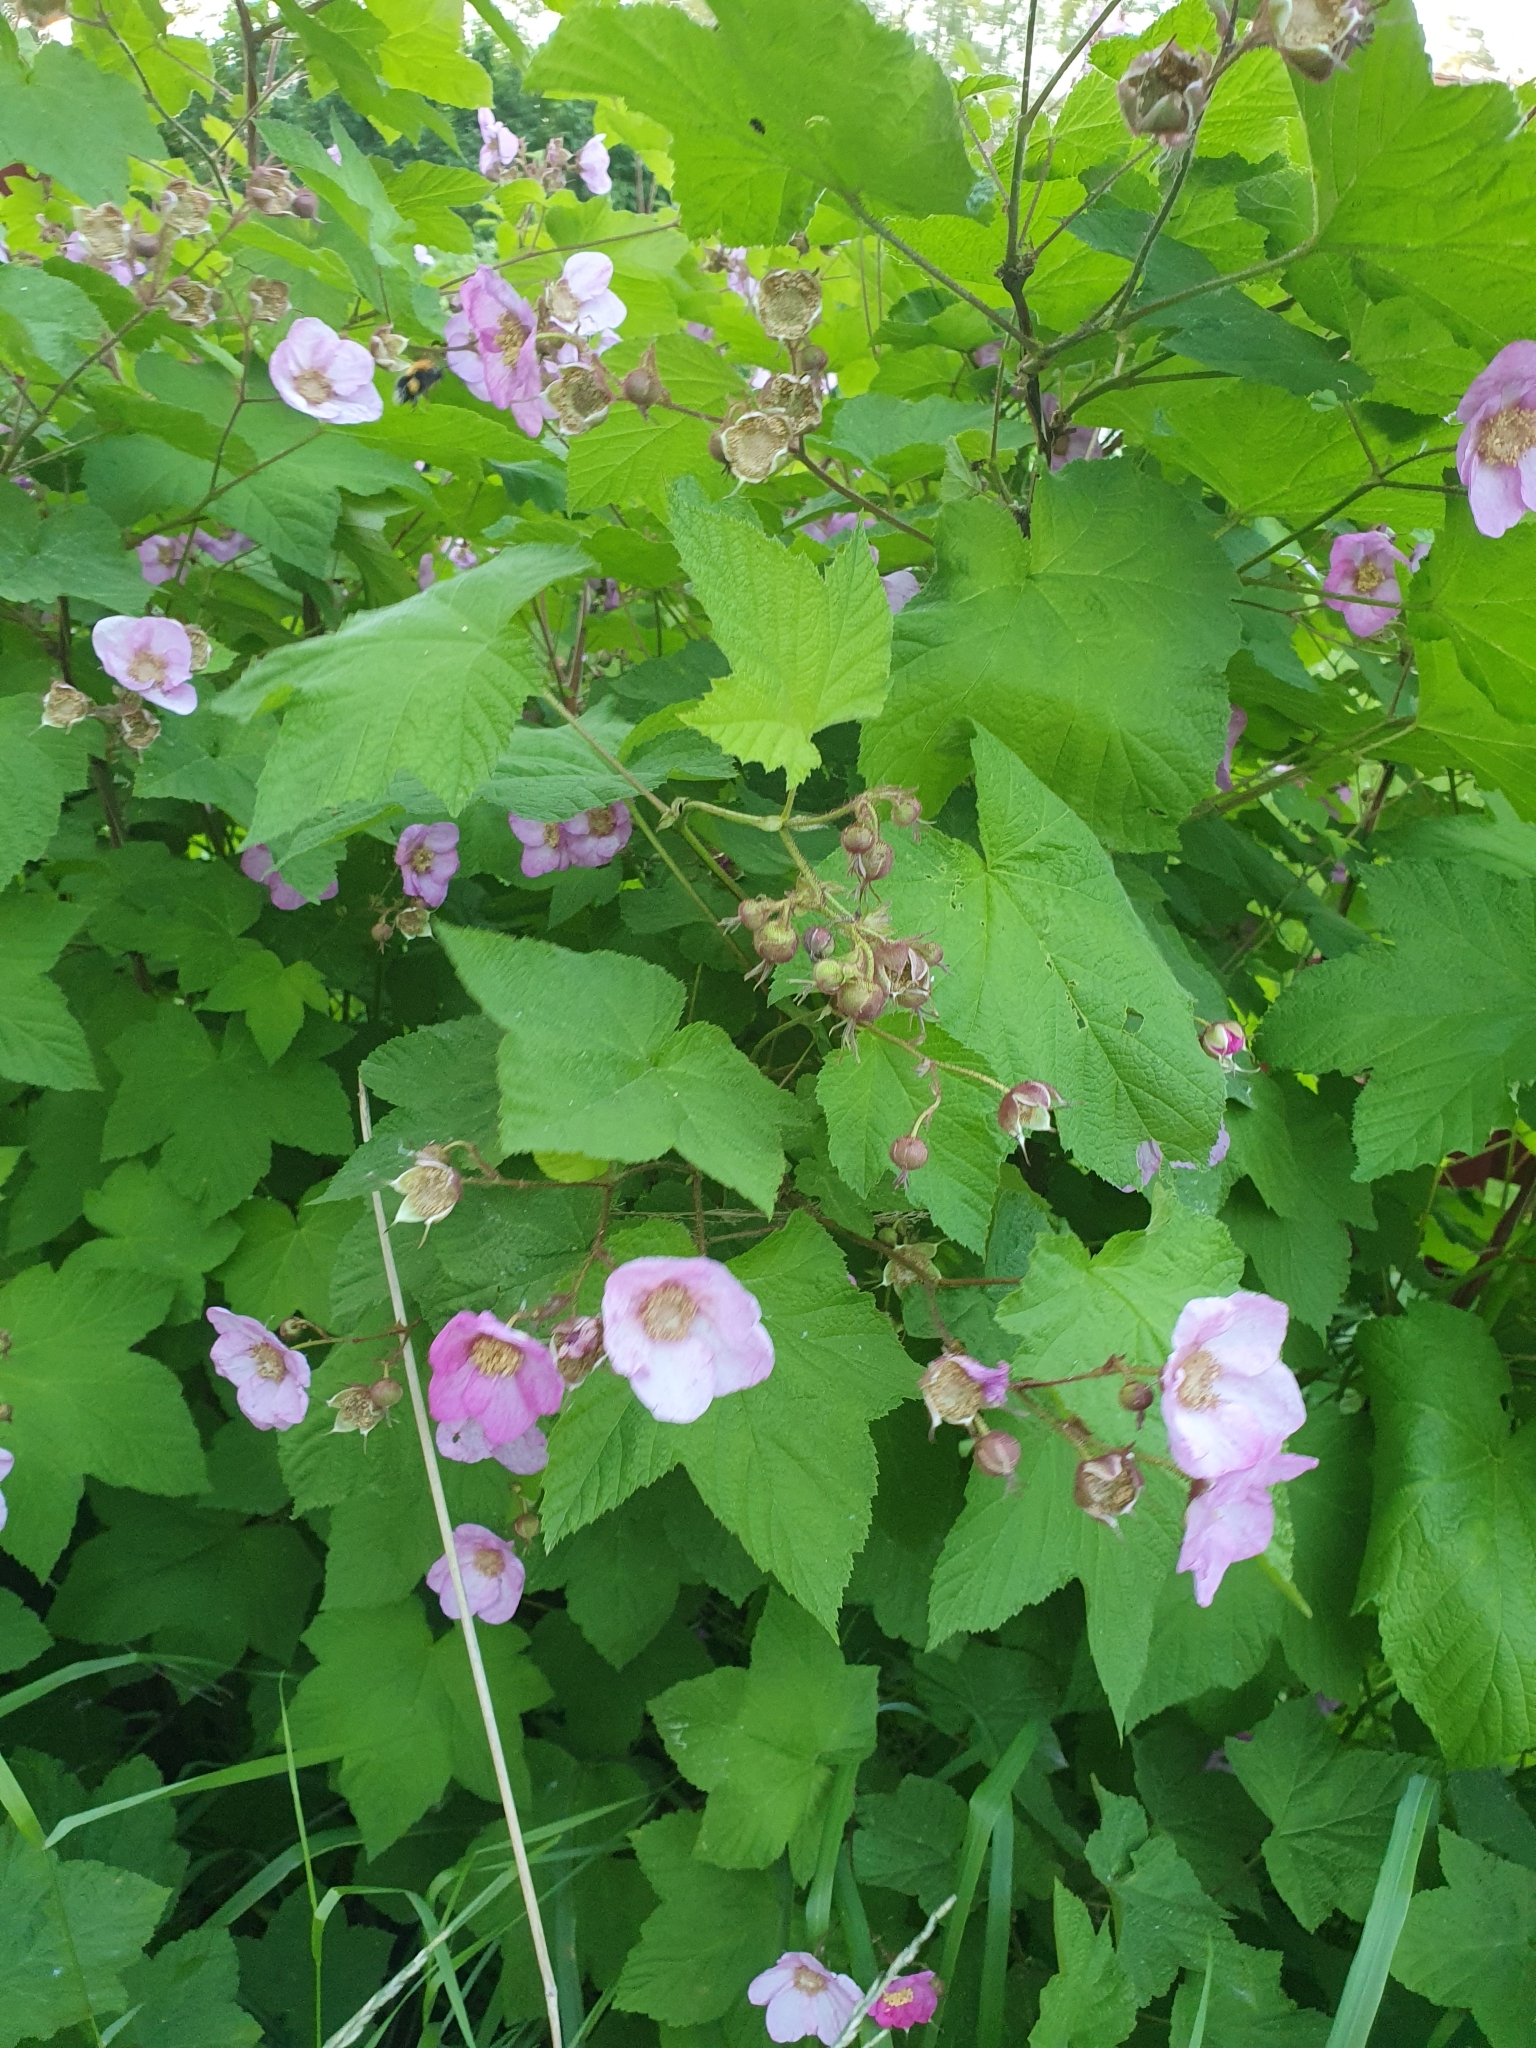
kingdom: Plantae
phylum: Tracheophyta
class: Magnoliopsida
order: Rosales
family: Rosaceae
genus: Rubus
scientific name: Rubus odoratus
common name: Purple-flowered raspberry
